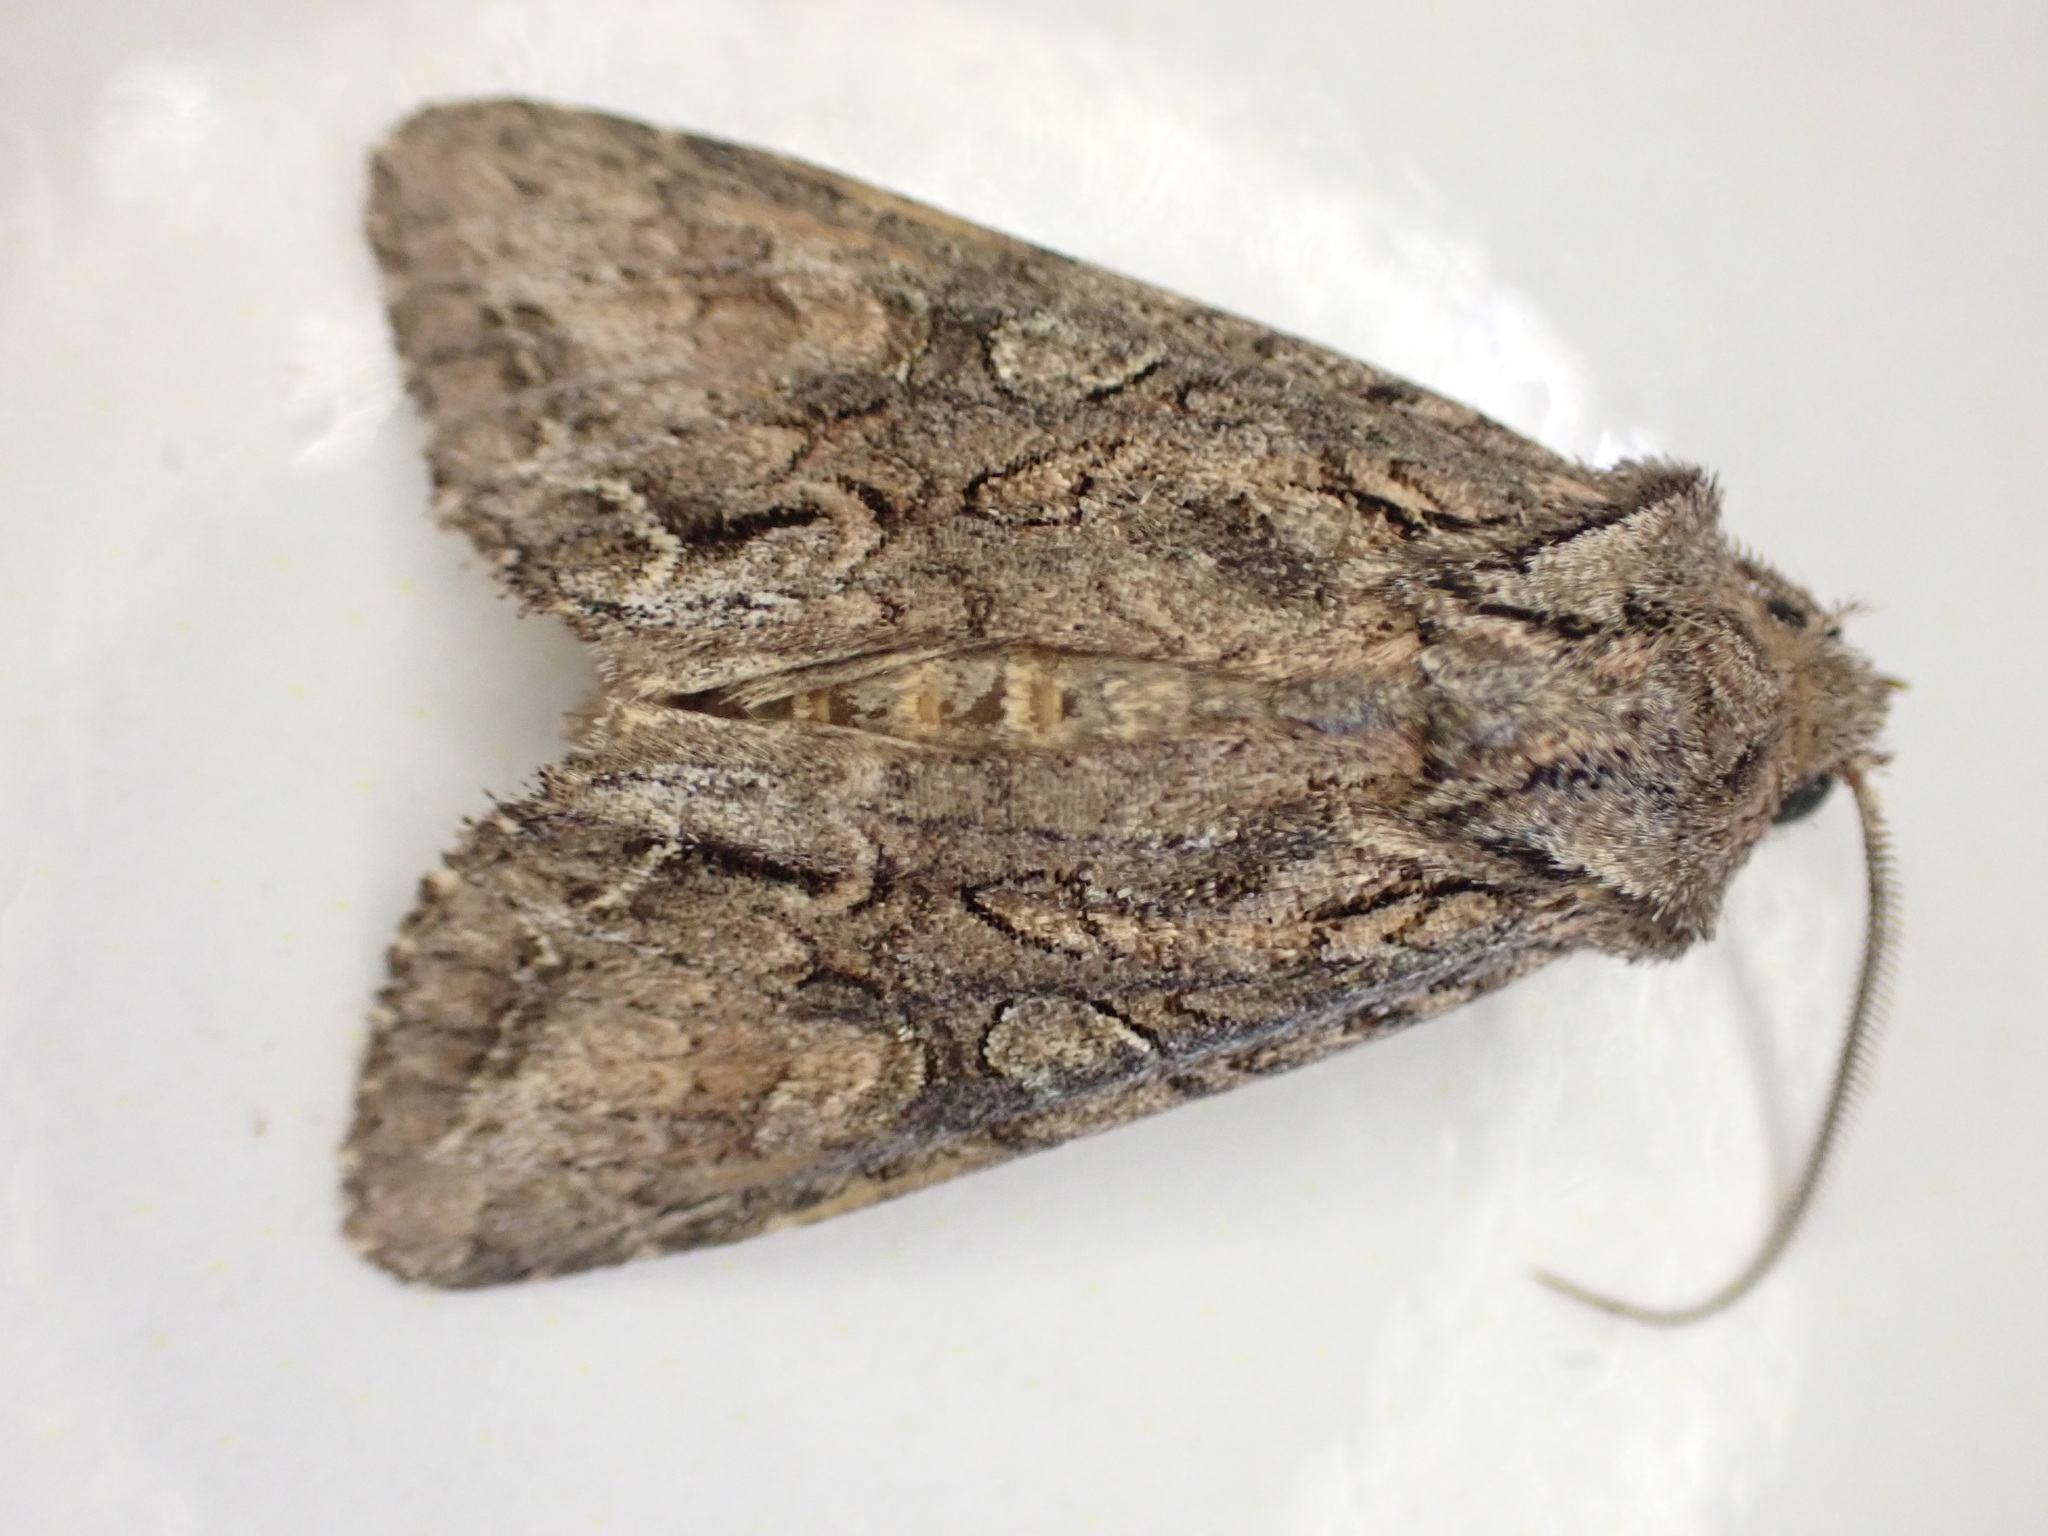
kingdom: Animalia
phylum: Arthropoda
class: Insecta
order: Lepidoptera
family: Noctuidae
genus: Ichneutica
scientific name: Ichneutica mutans
